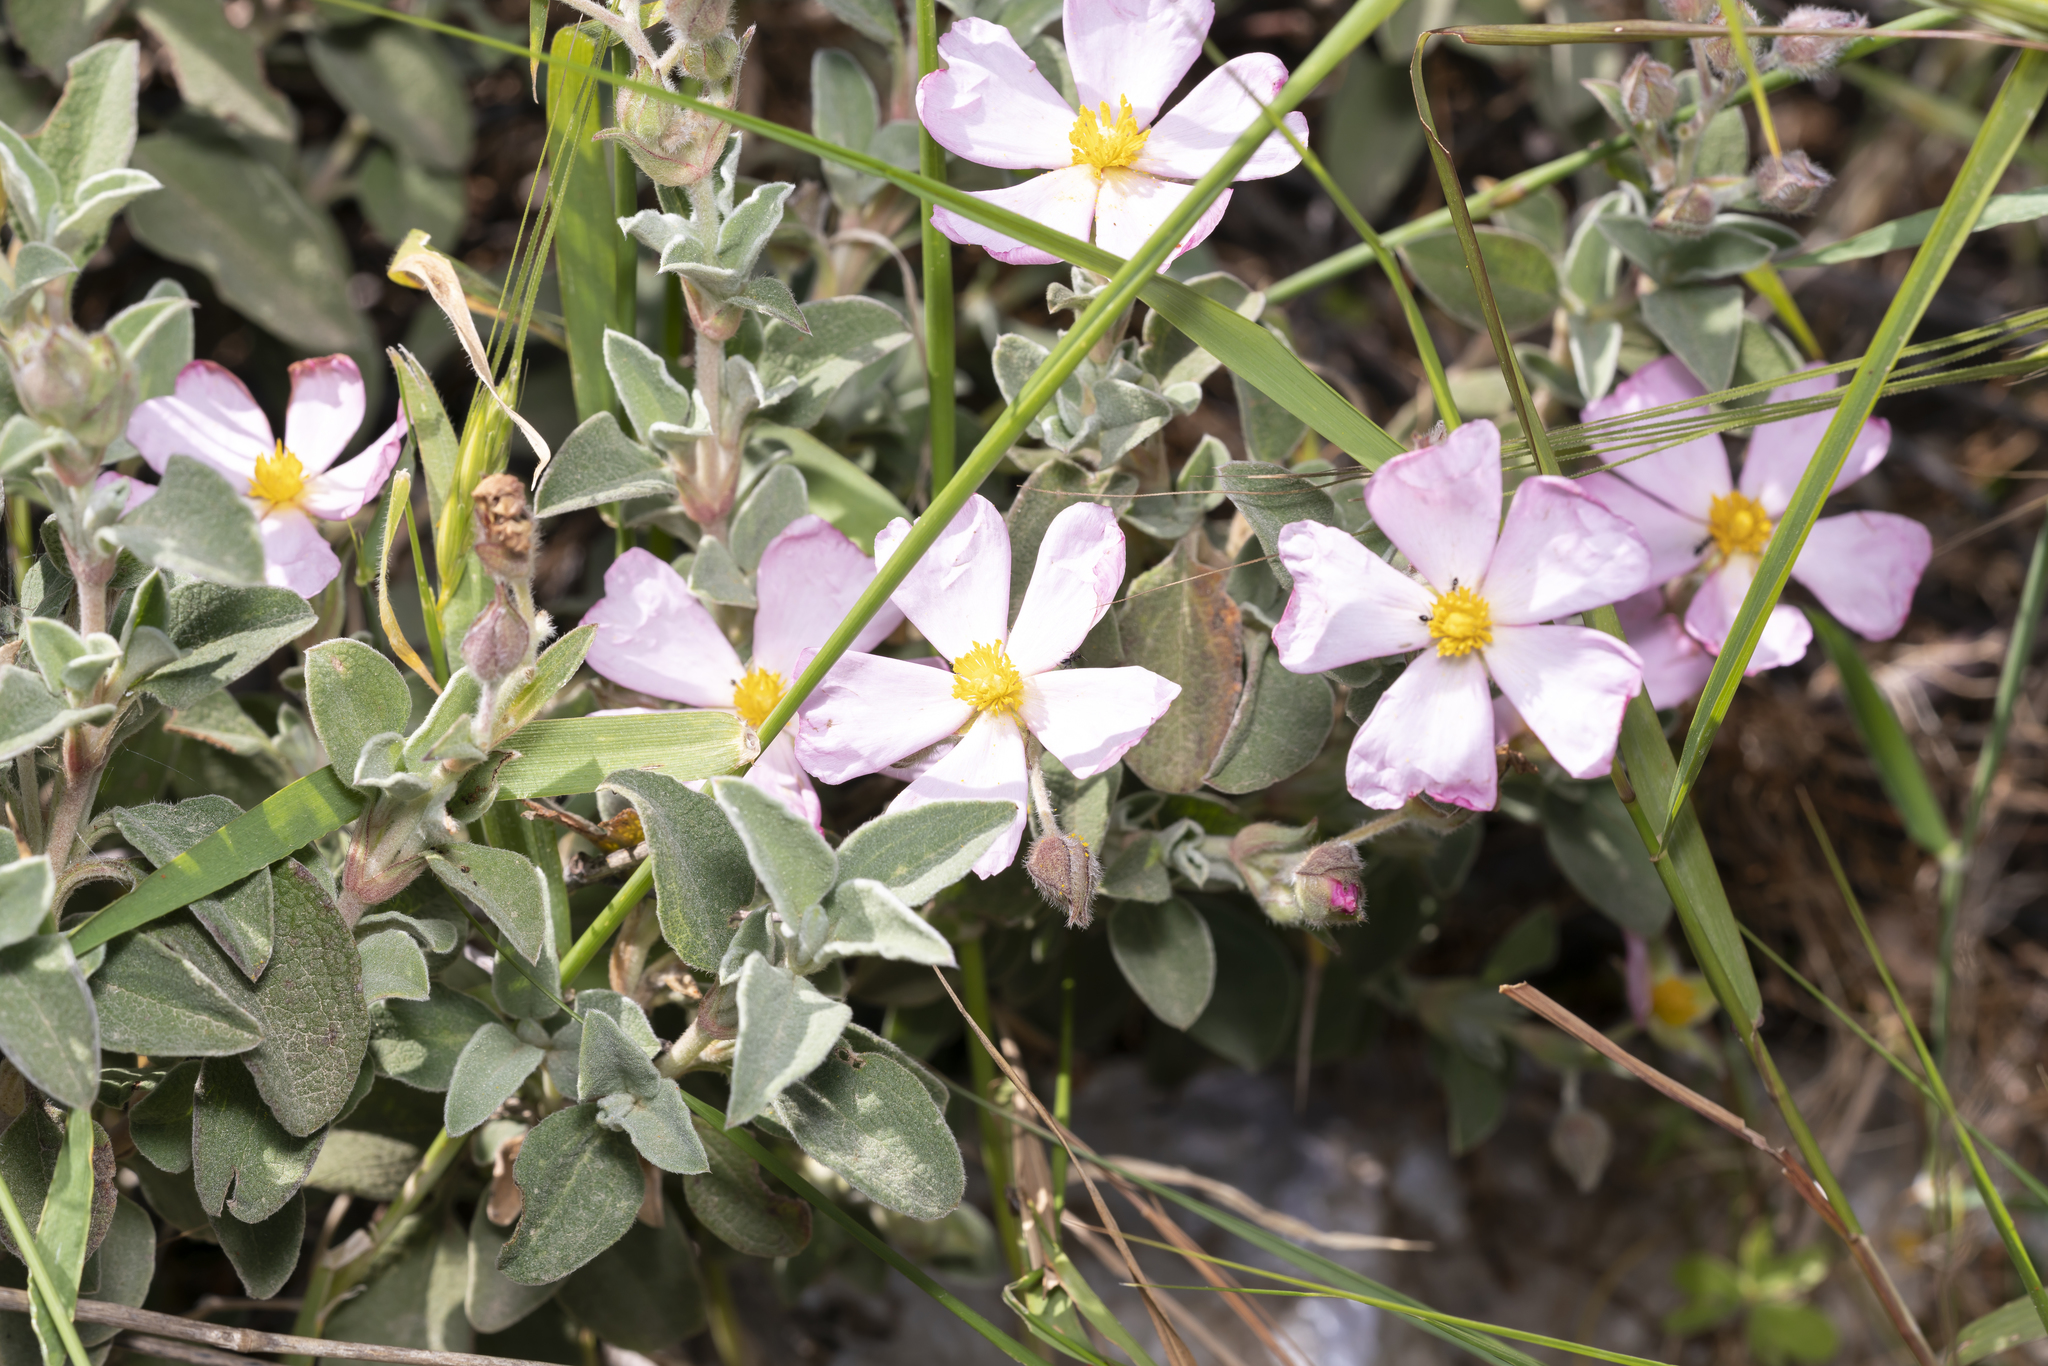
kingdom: Plantae
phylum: Tracheophyta
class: Magnoliopsida
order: Malvales
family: Cistaceae
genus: Cistus
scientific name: Cistus parviflorus
